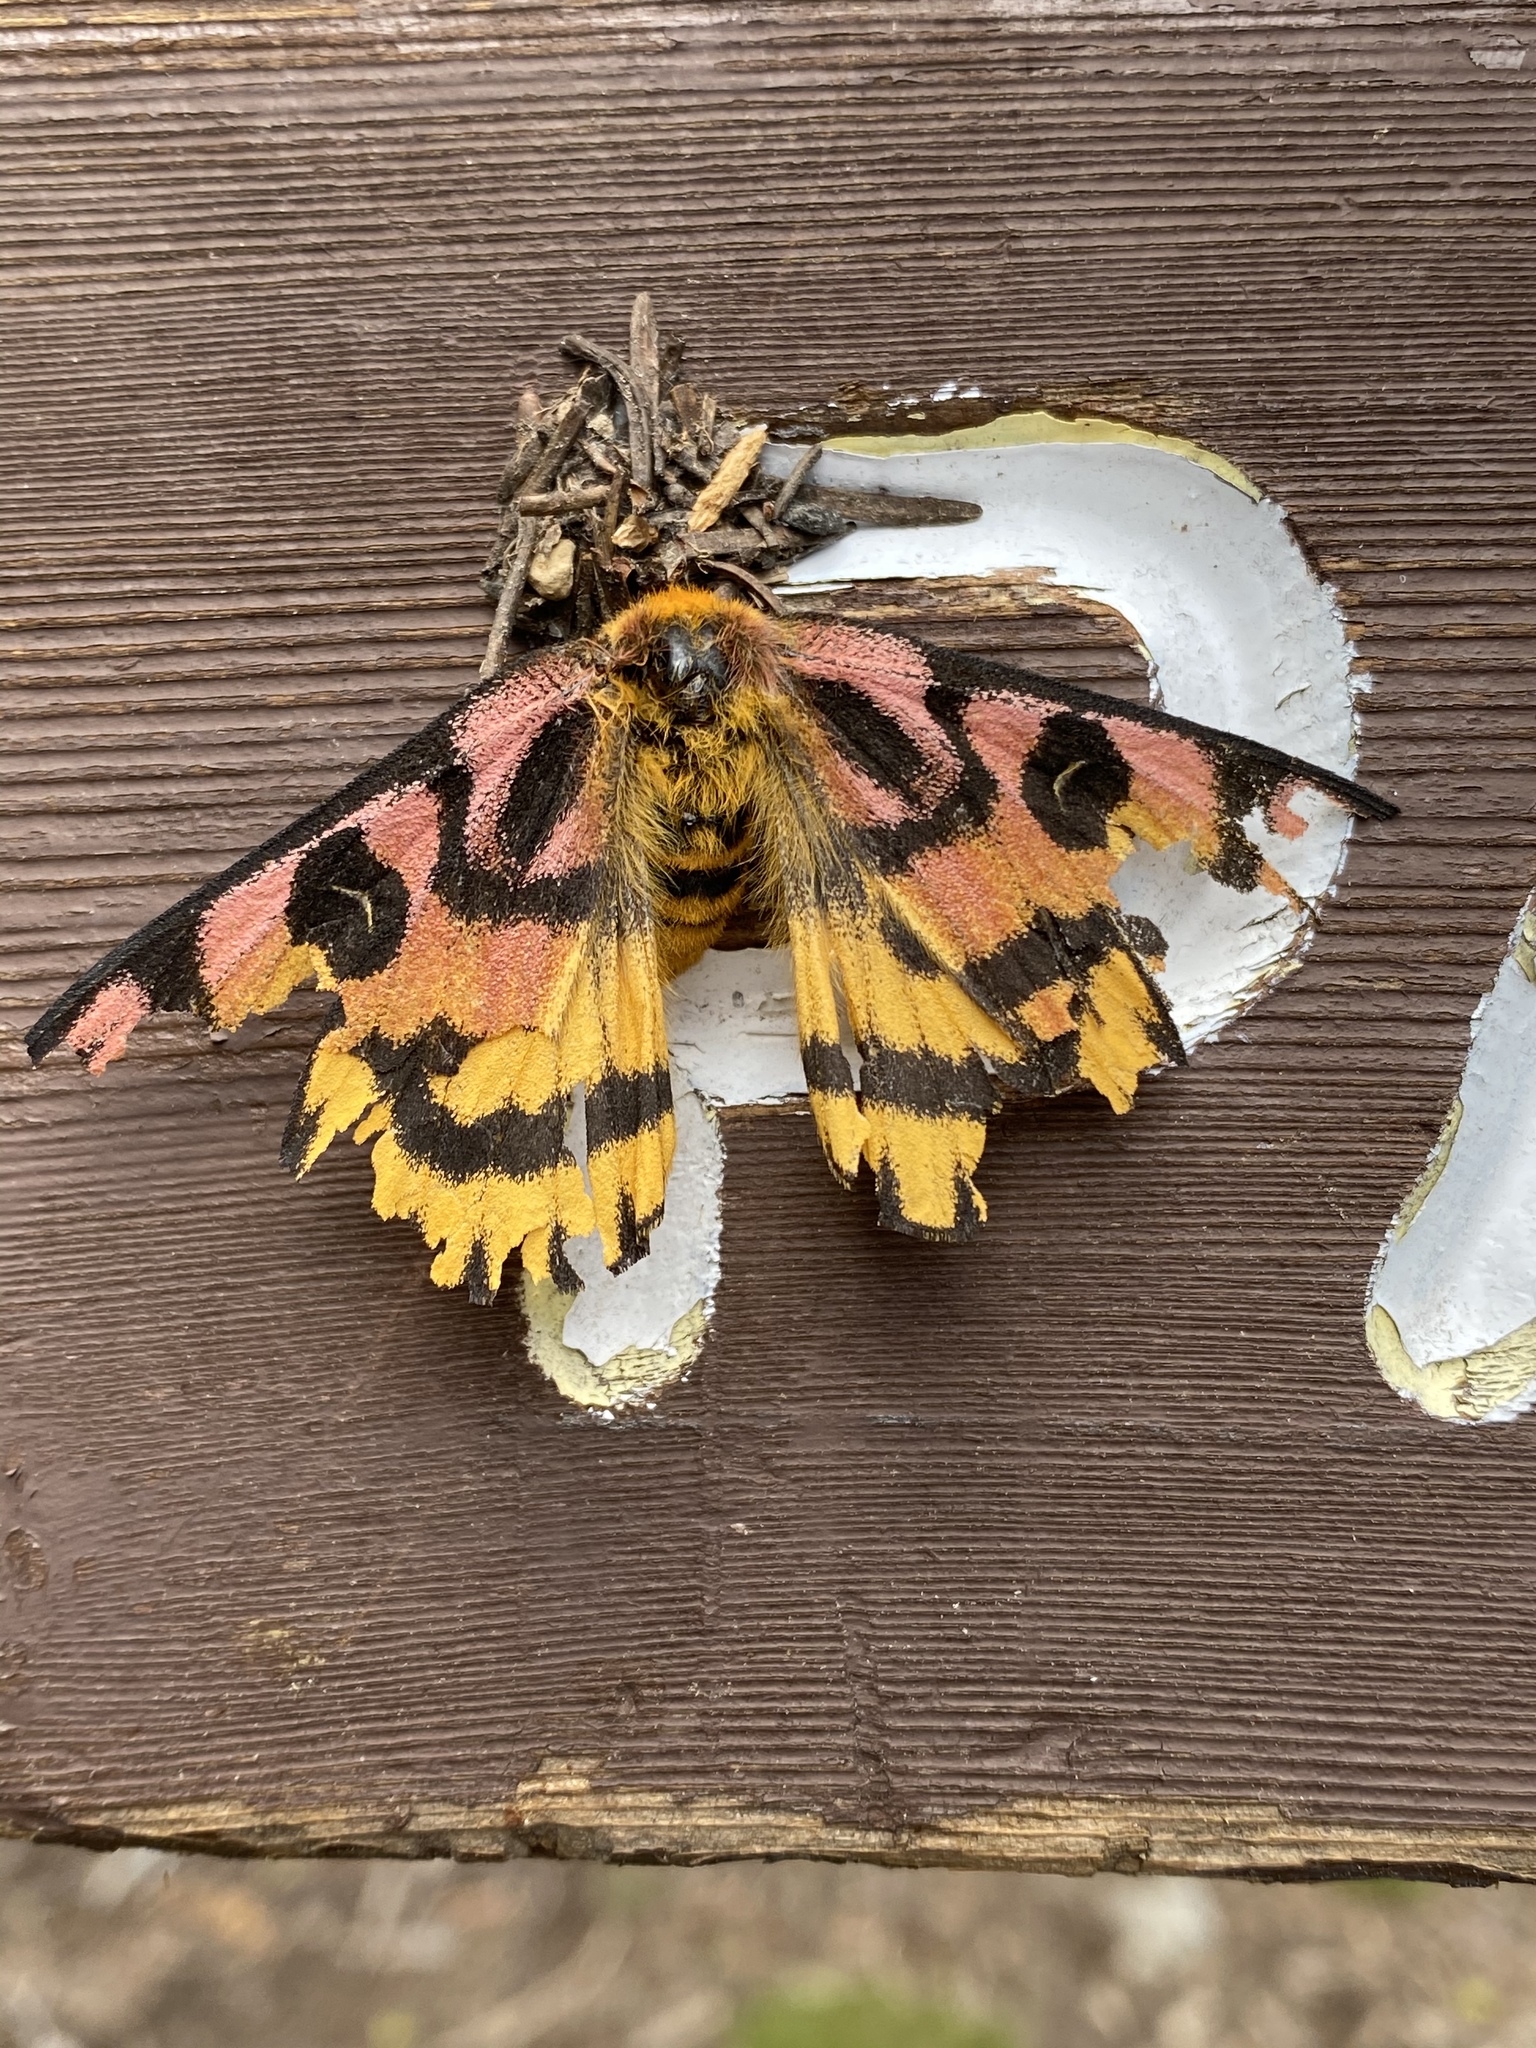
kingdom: Animalia
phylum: Arthropoda
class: Insecta
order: Lepidoptera
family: Saturniidae
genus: Hemileuca
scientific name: Hemileuca eglanterina
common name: Western sheepmoth
